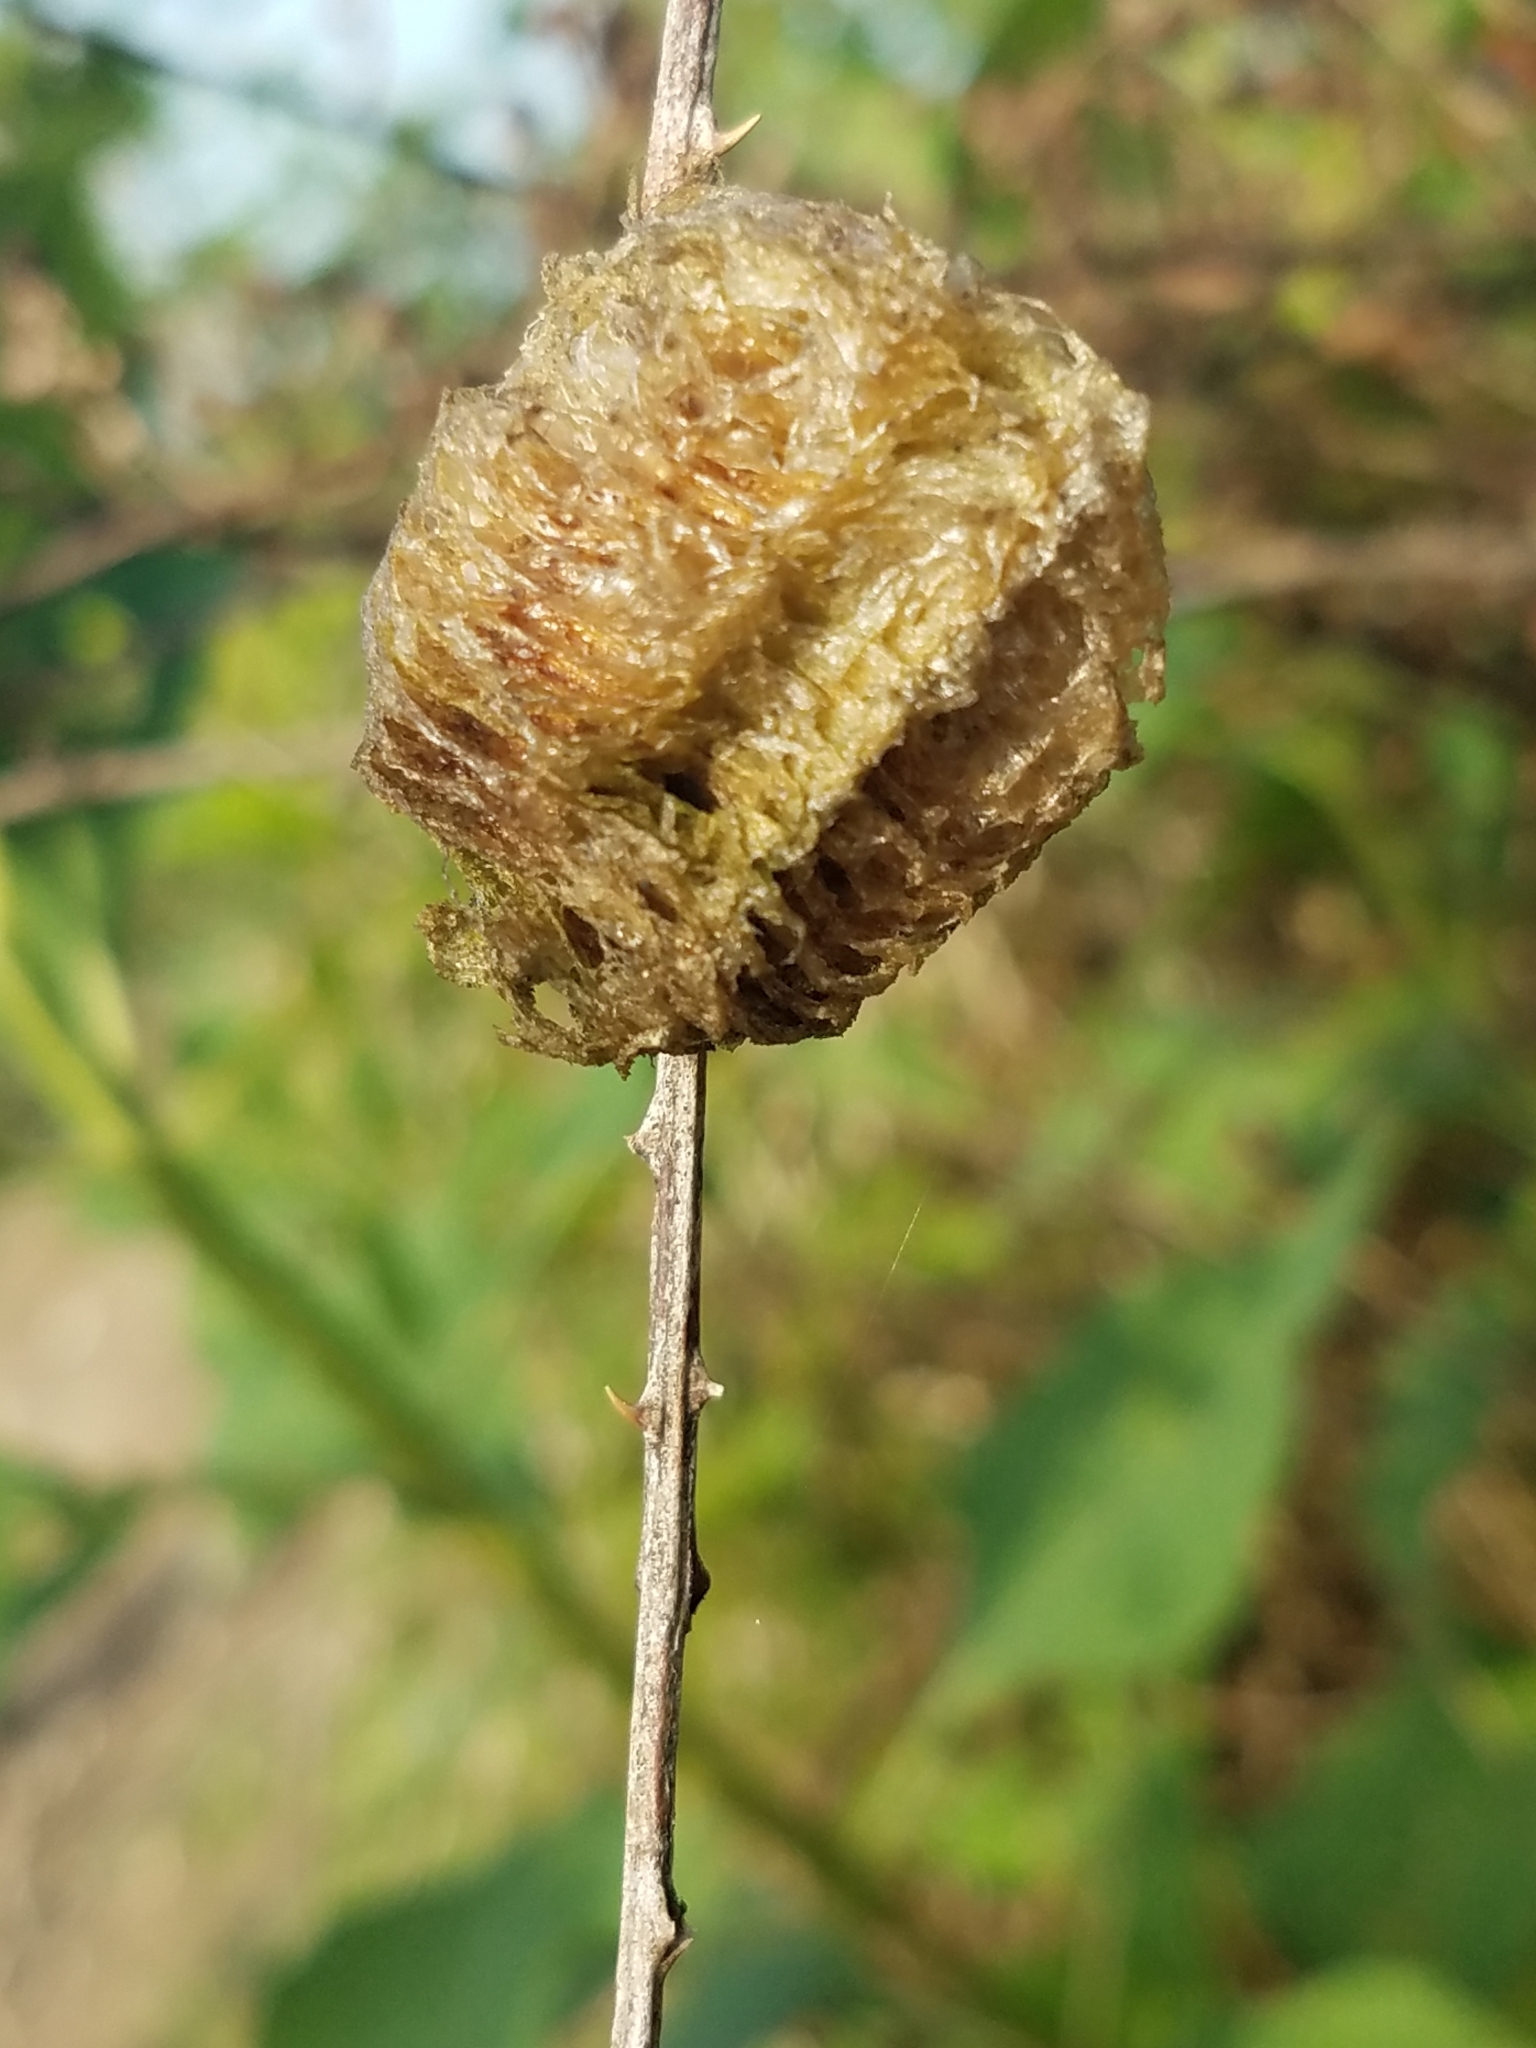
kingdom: Animalia
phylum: Arthropoda
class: Insecta
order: Mantodea
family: Mantidae
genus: Tenodera
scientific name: Tenodera sinensis
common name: Chinese mantis
